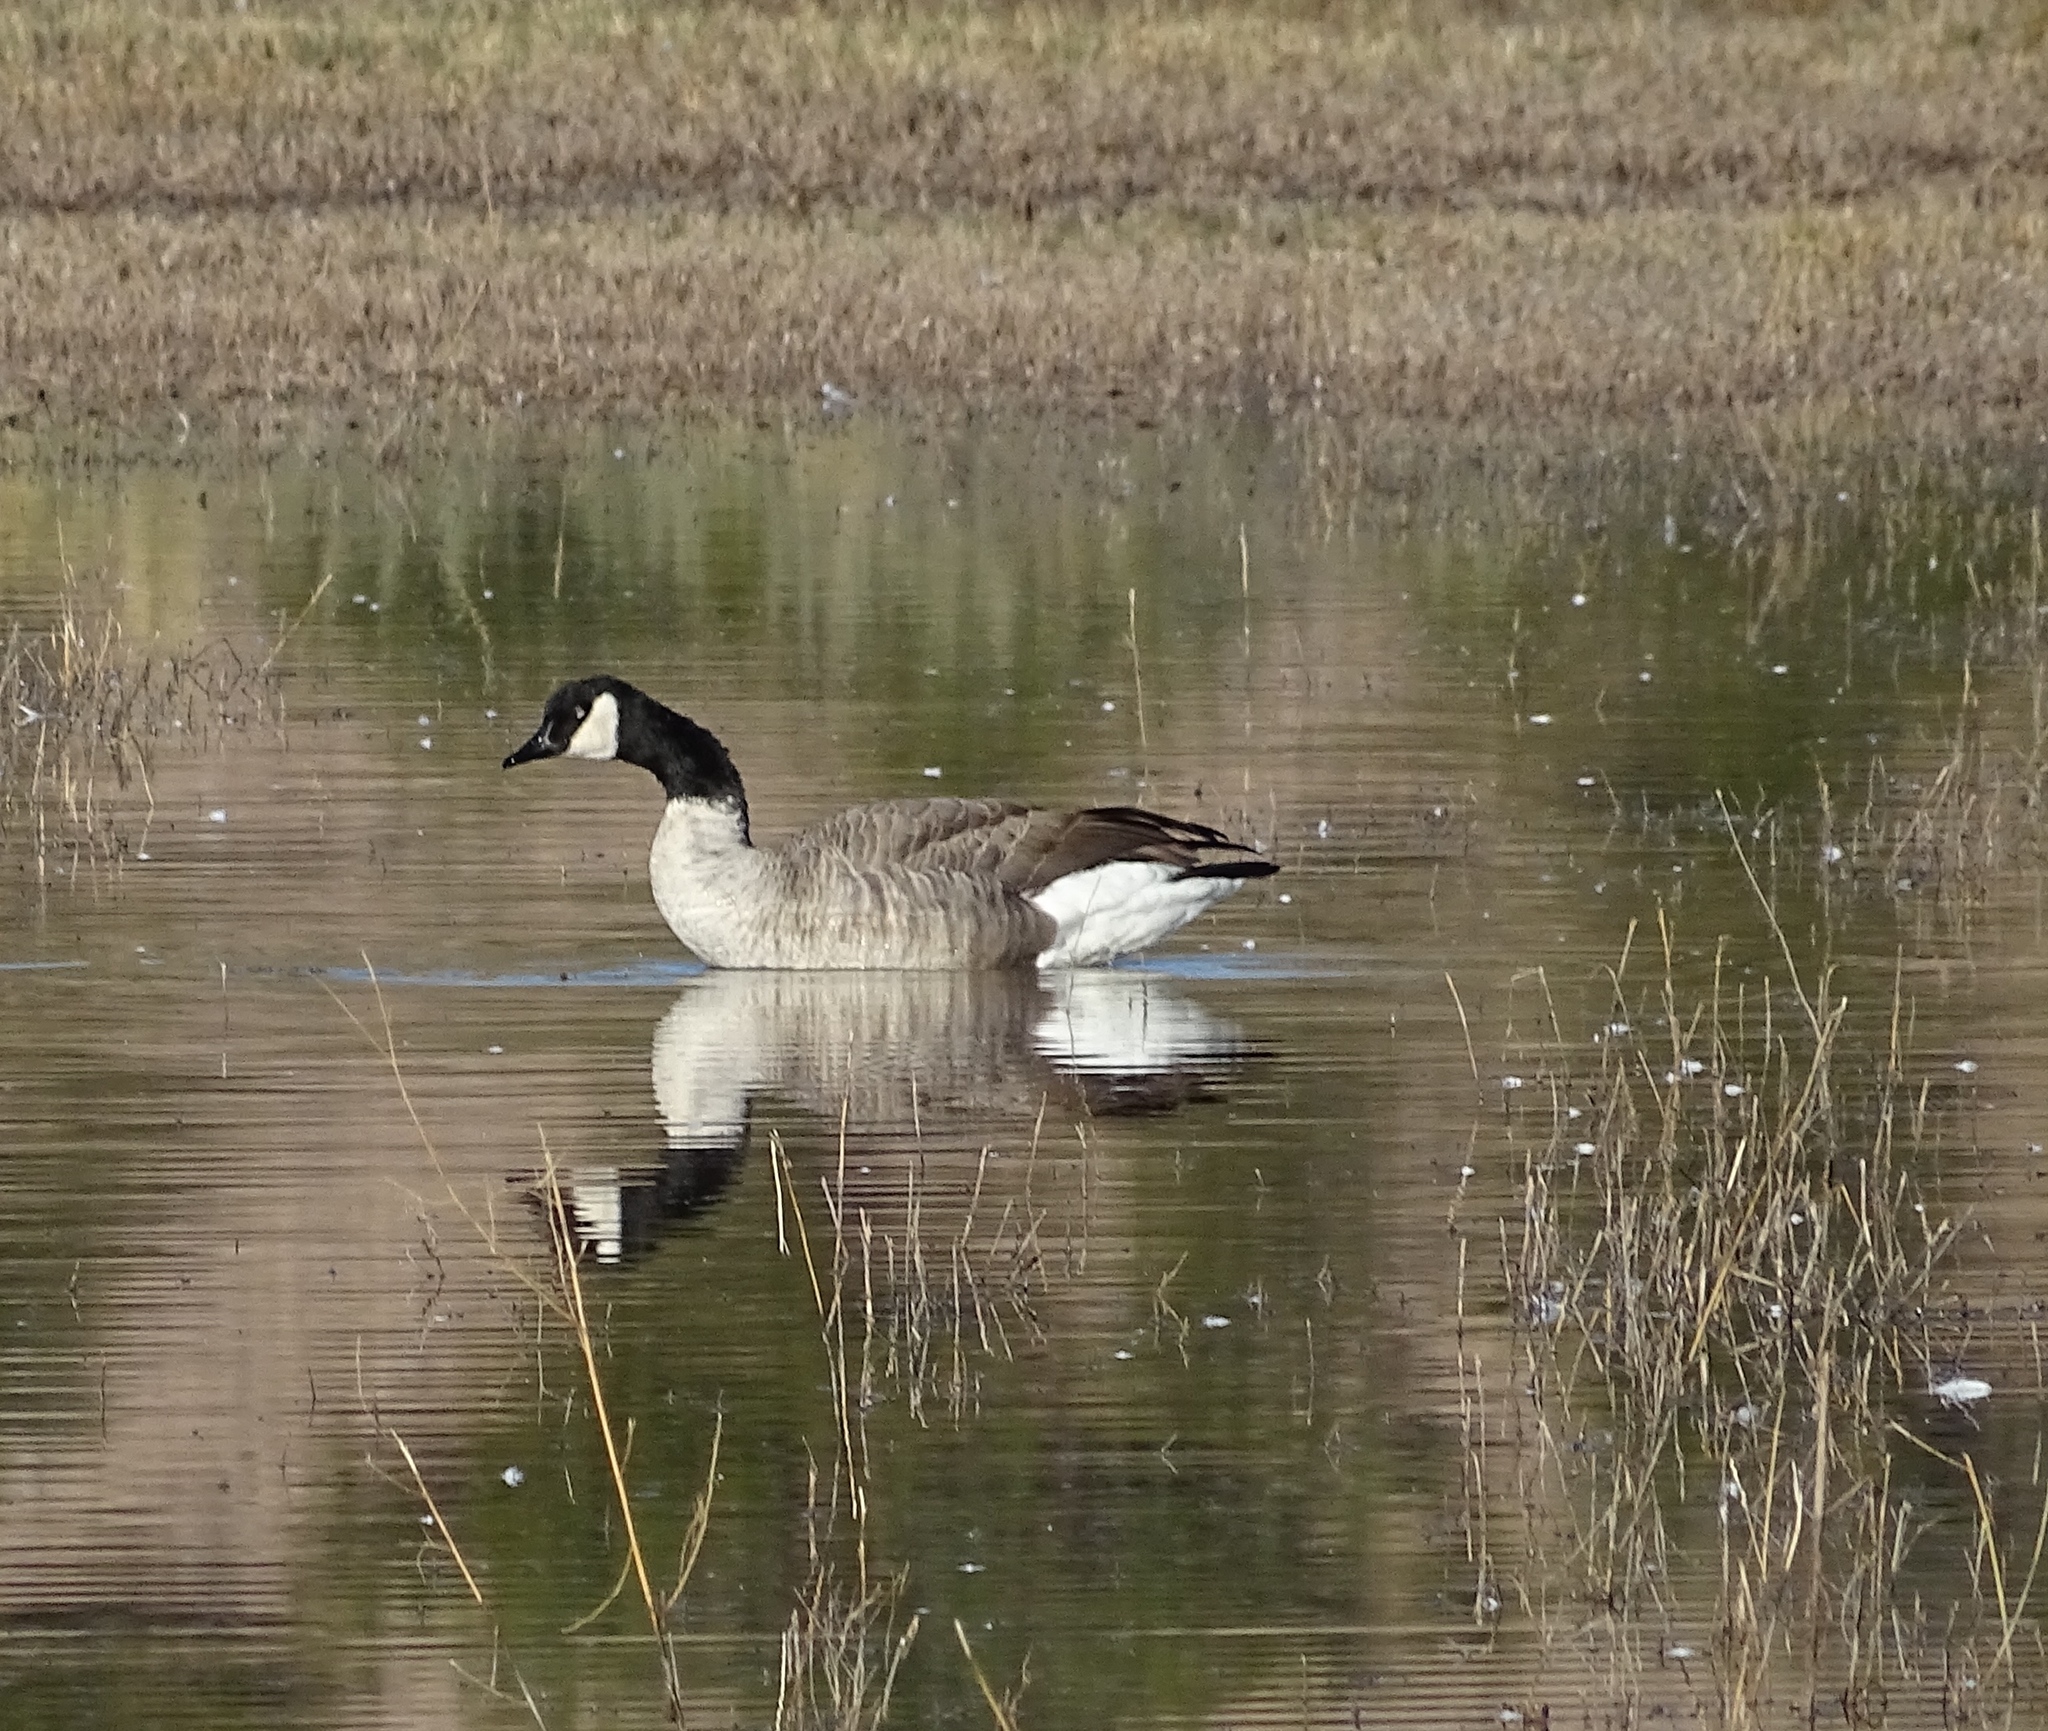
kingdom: Animalia
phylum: Chordata
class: Aves
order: Anseriformes
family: Anatidae
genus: Branta
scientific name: Branta canadensis
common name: Canada goose
